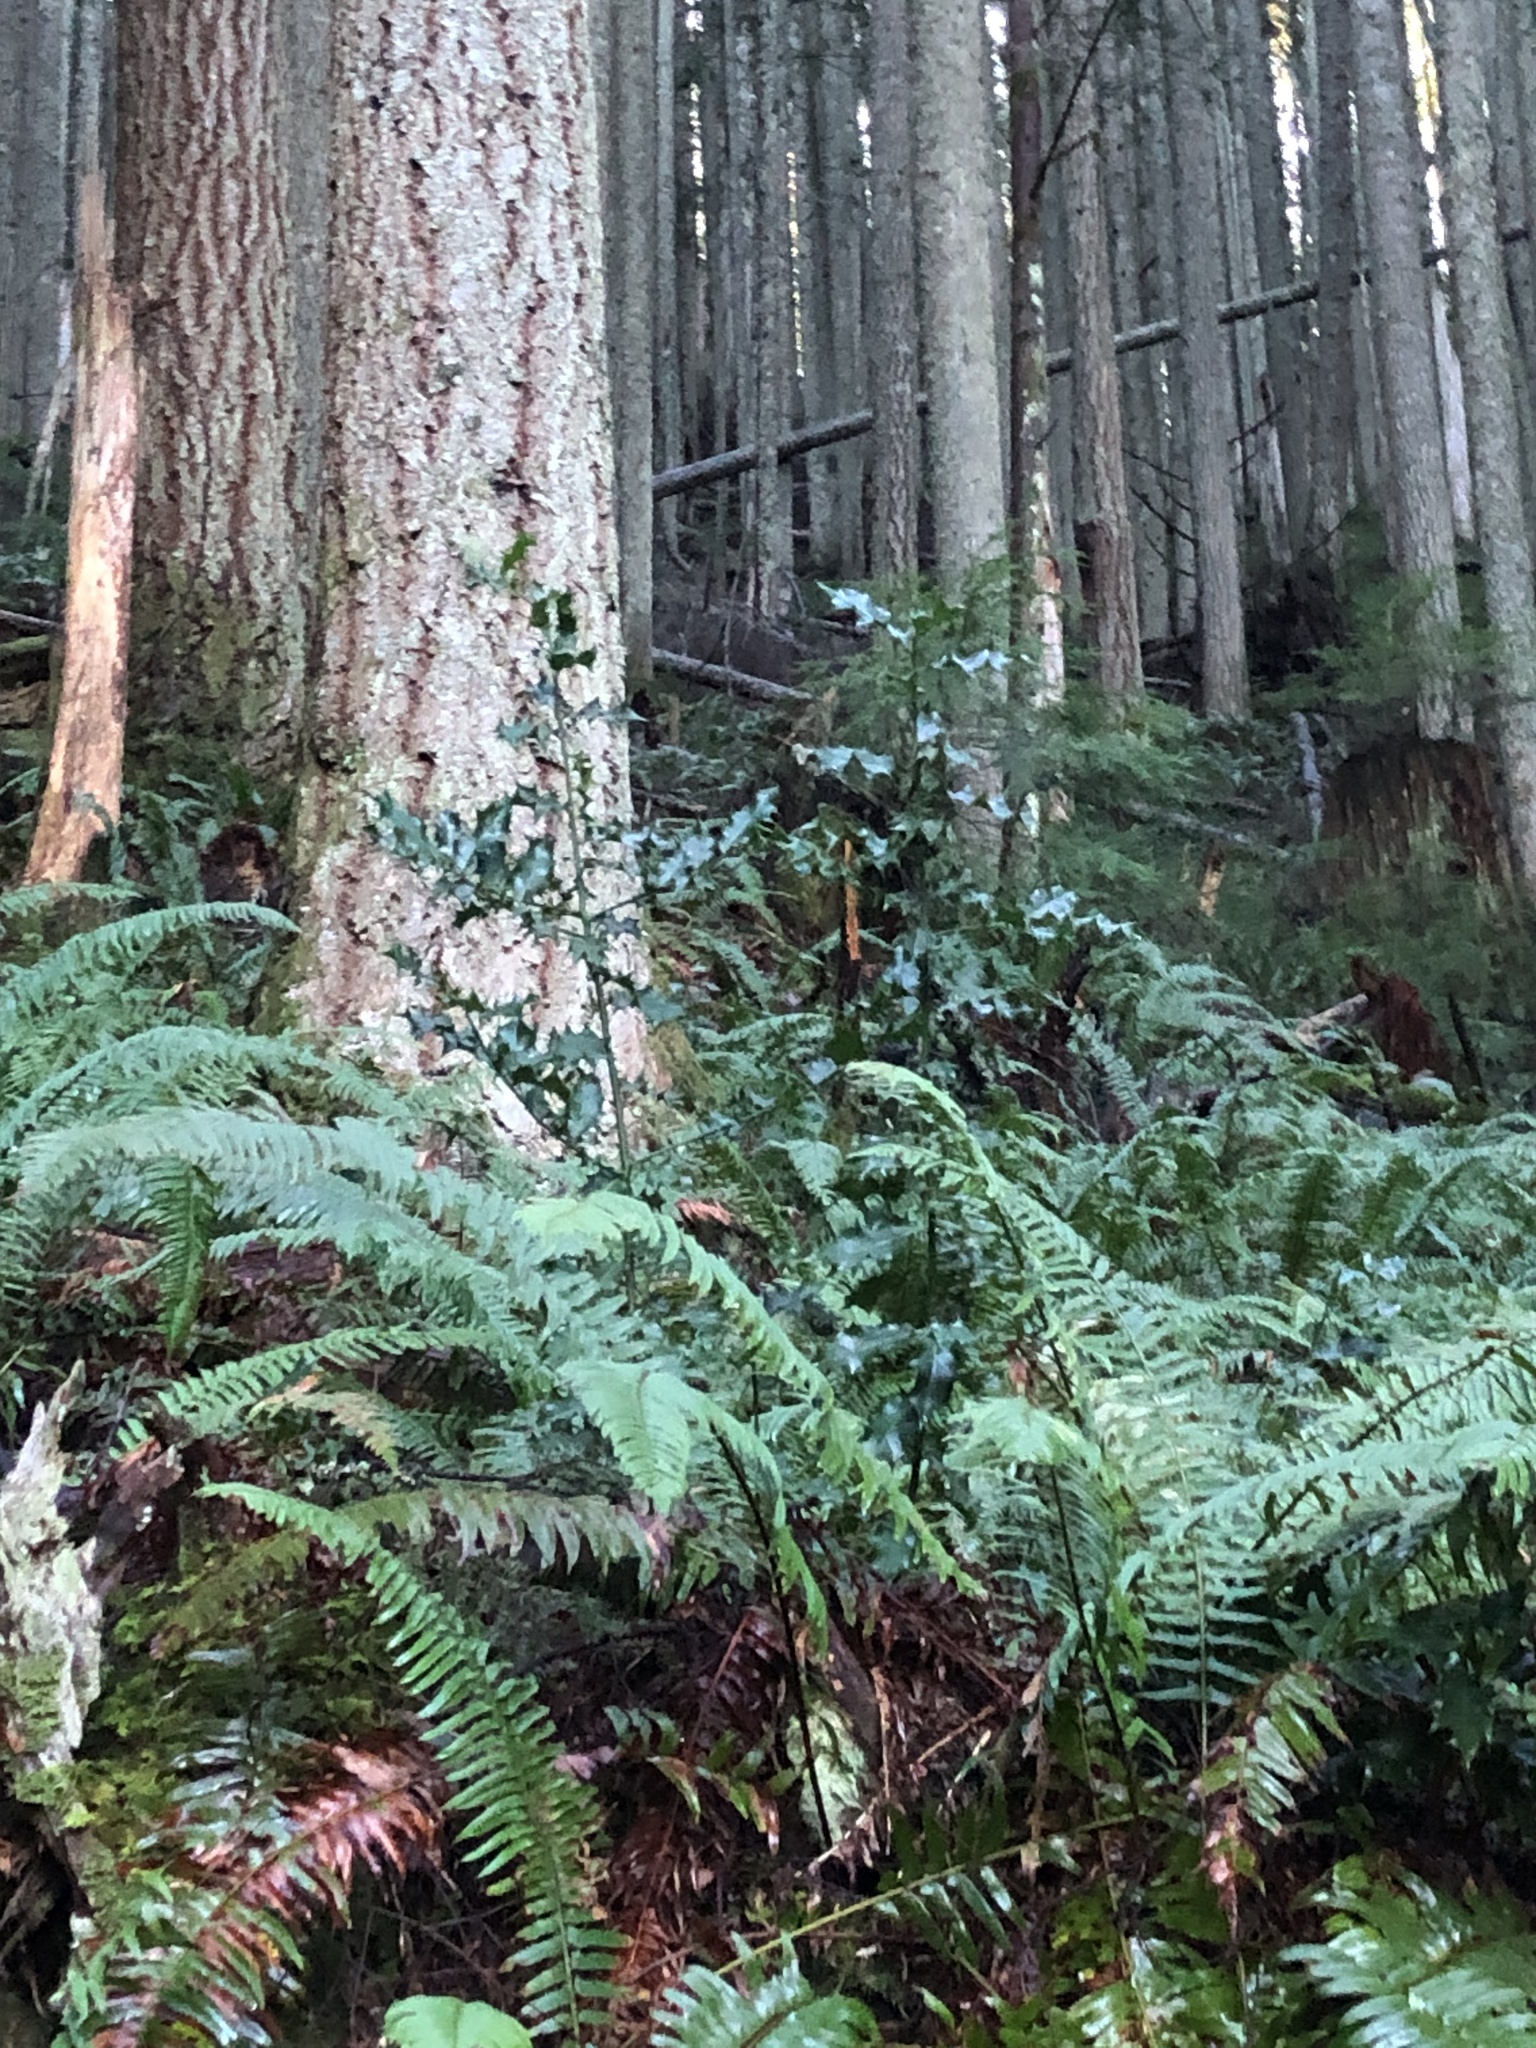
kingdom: Plantae
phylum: Tracheophyta
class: Magnoliopsida
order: Aquifoliales
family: Aquifoliaceae
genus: Ilex
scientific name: Ilex aquifolium
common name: English holly
